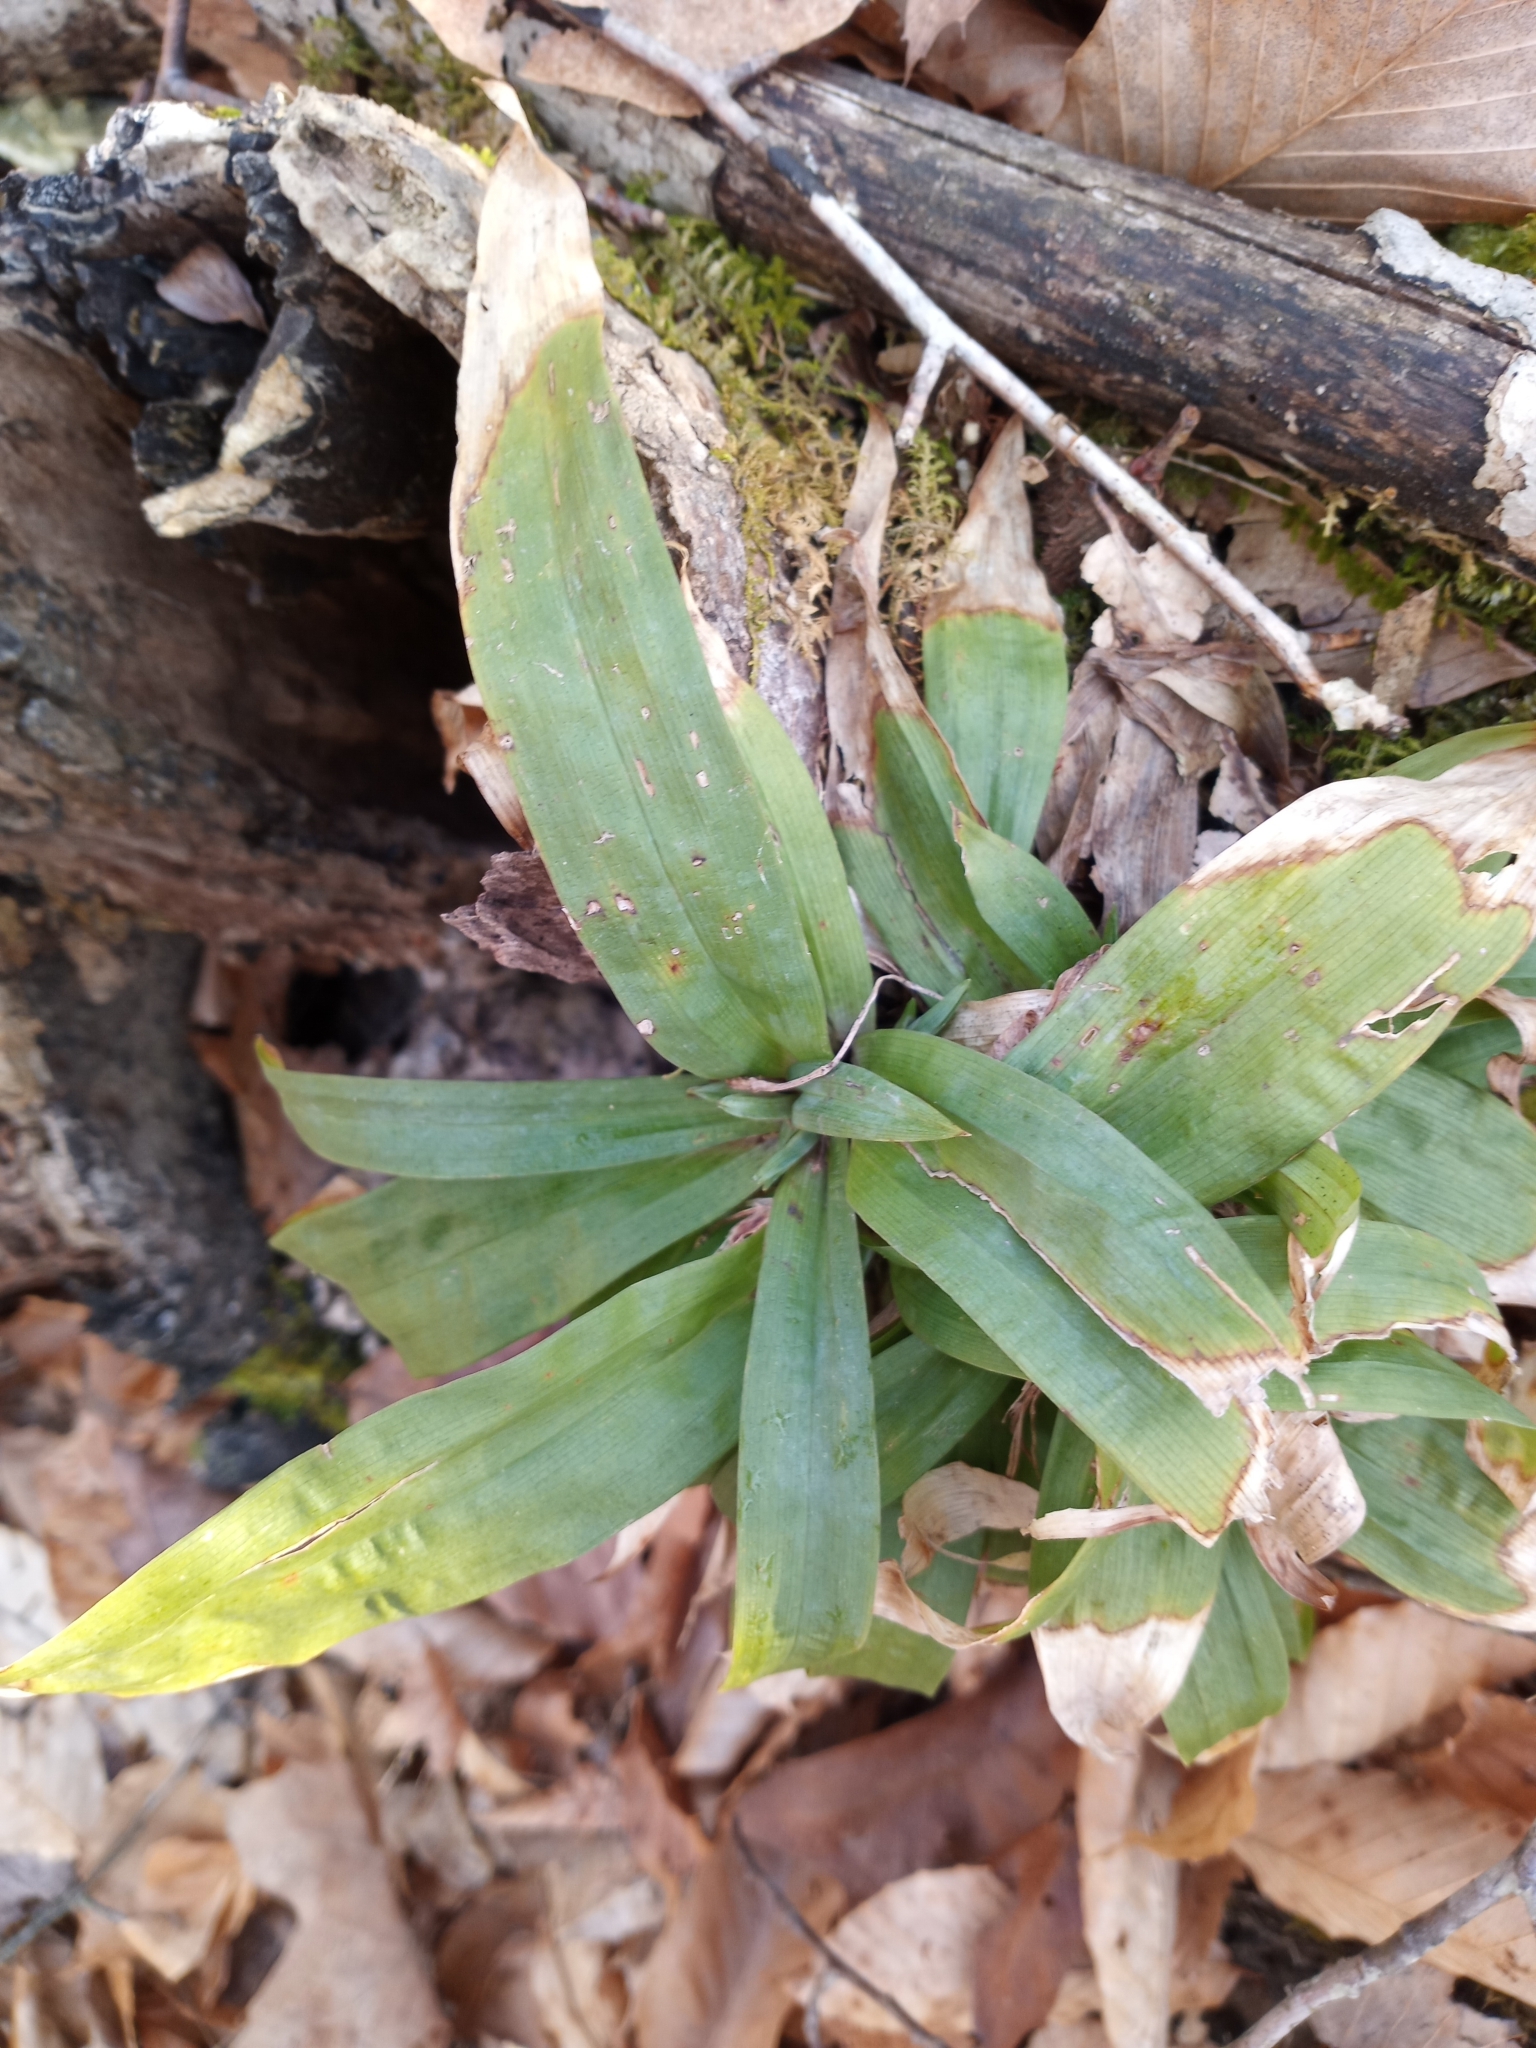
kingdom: Plantae
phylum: Tracheophyta
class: Liliopsida
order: Poales
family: Cyperaceae
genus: Carex
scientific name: Carex platyphylla
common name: Broad-leaved sedge
